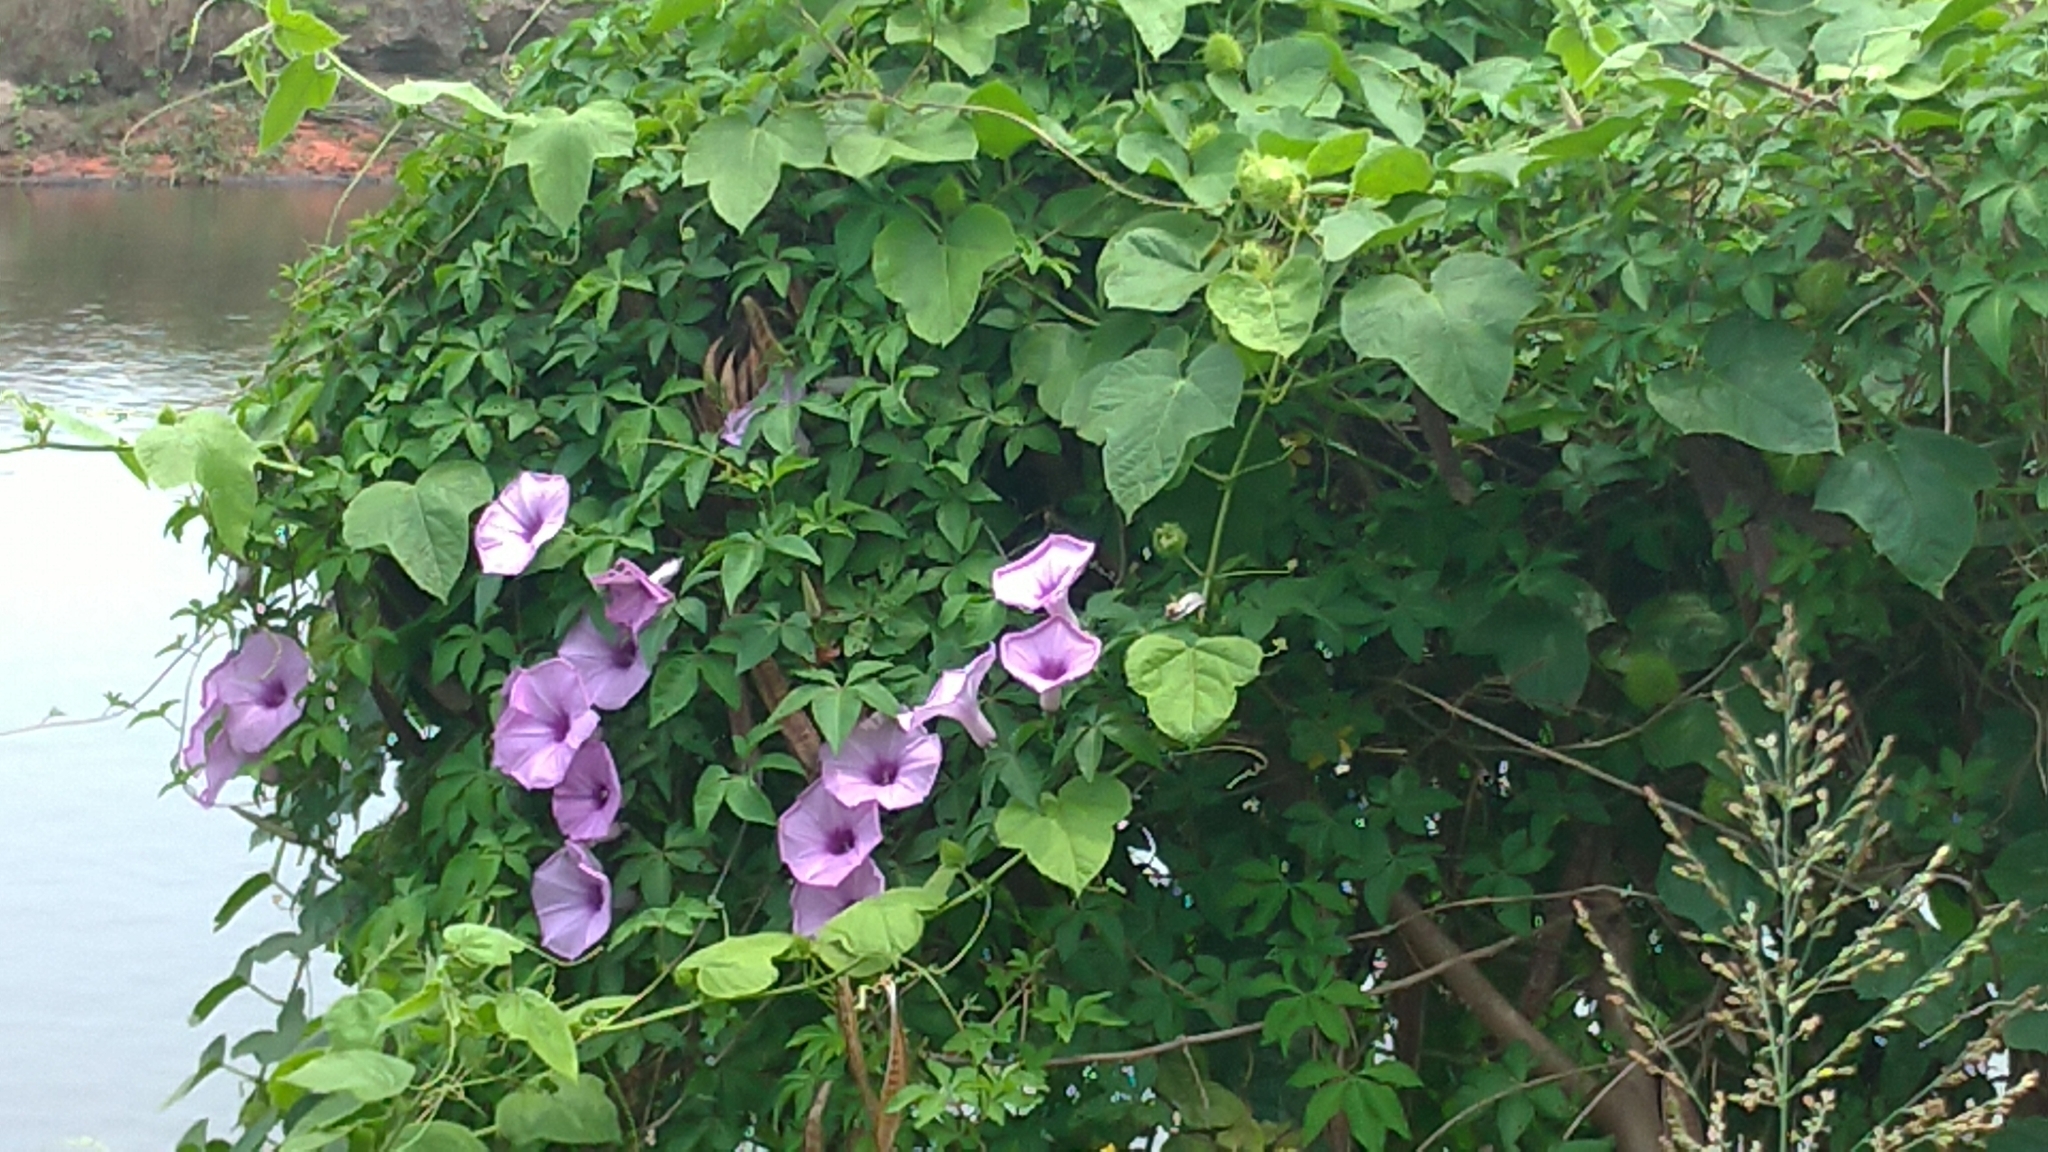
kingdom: Plantae
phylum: Tracheophyta
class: Magnoliopsida
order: Solanales
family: Convolvulaceae
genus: Ipomoea
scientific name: Ipomoea cairica
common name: Mile a minute vine
